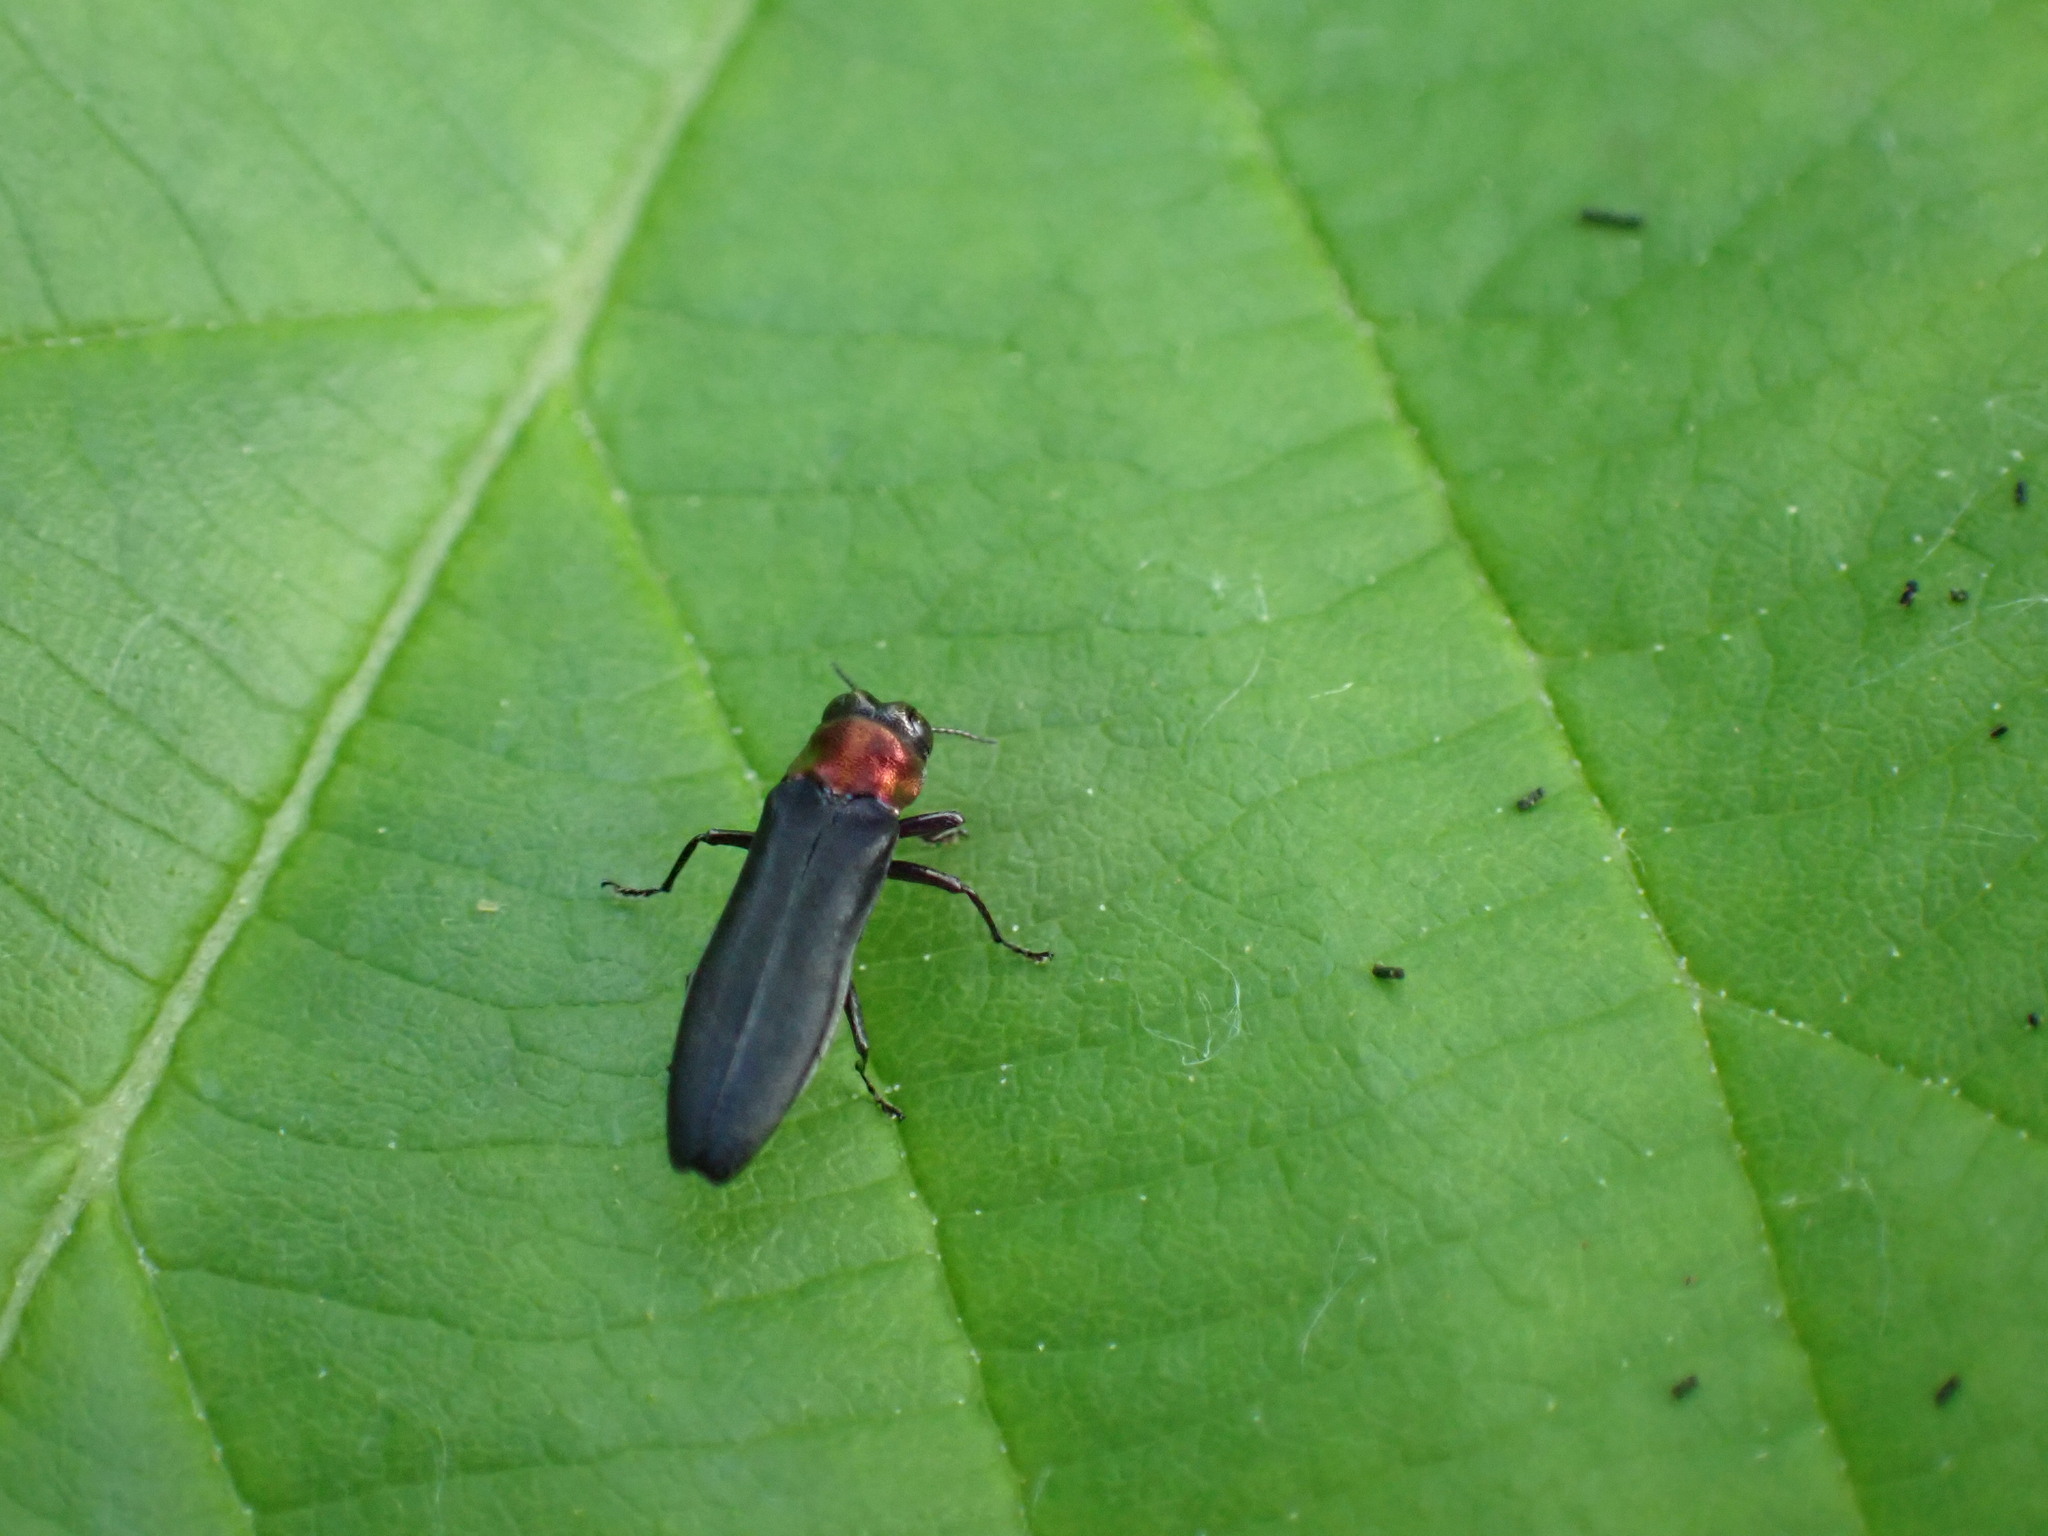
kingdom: Animalia
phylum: Arthropoda
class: Insecta
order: Coleoptera
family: Buprestidae
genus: Agrilus
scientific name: Agrilus ruficollis
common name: Red-necked cane borer beetle
